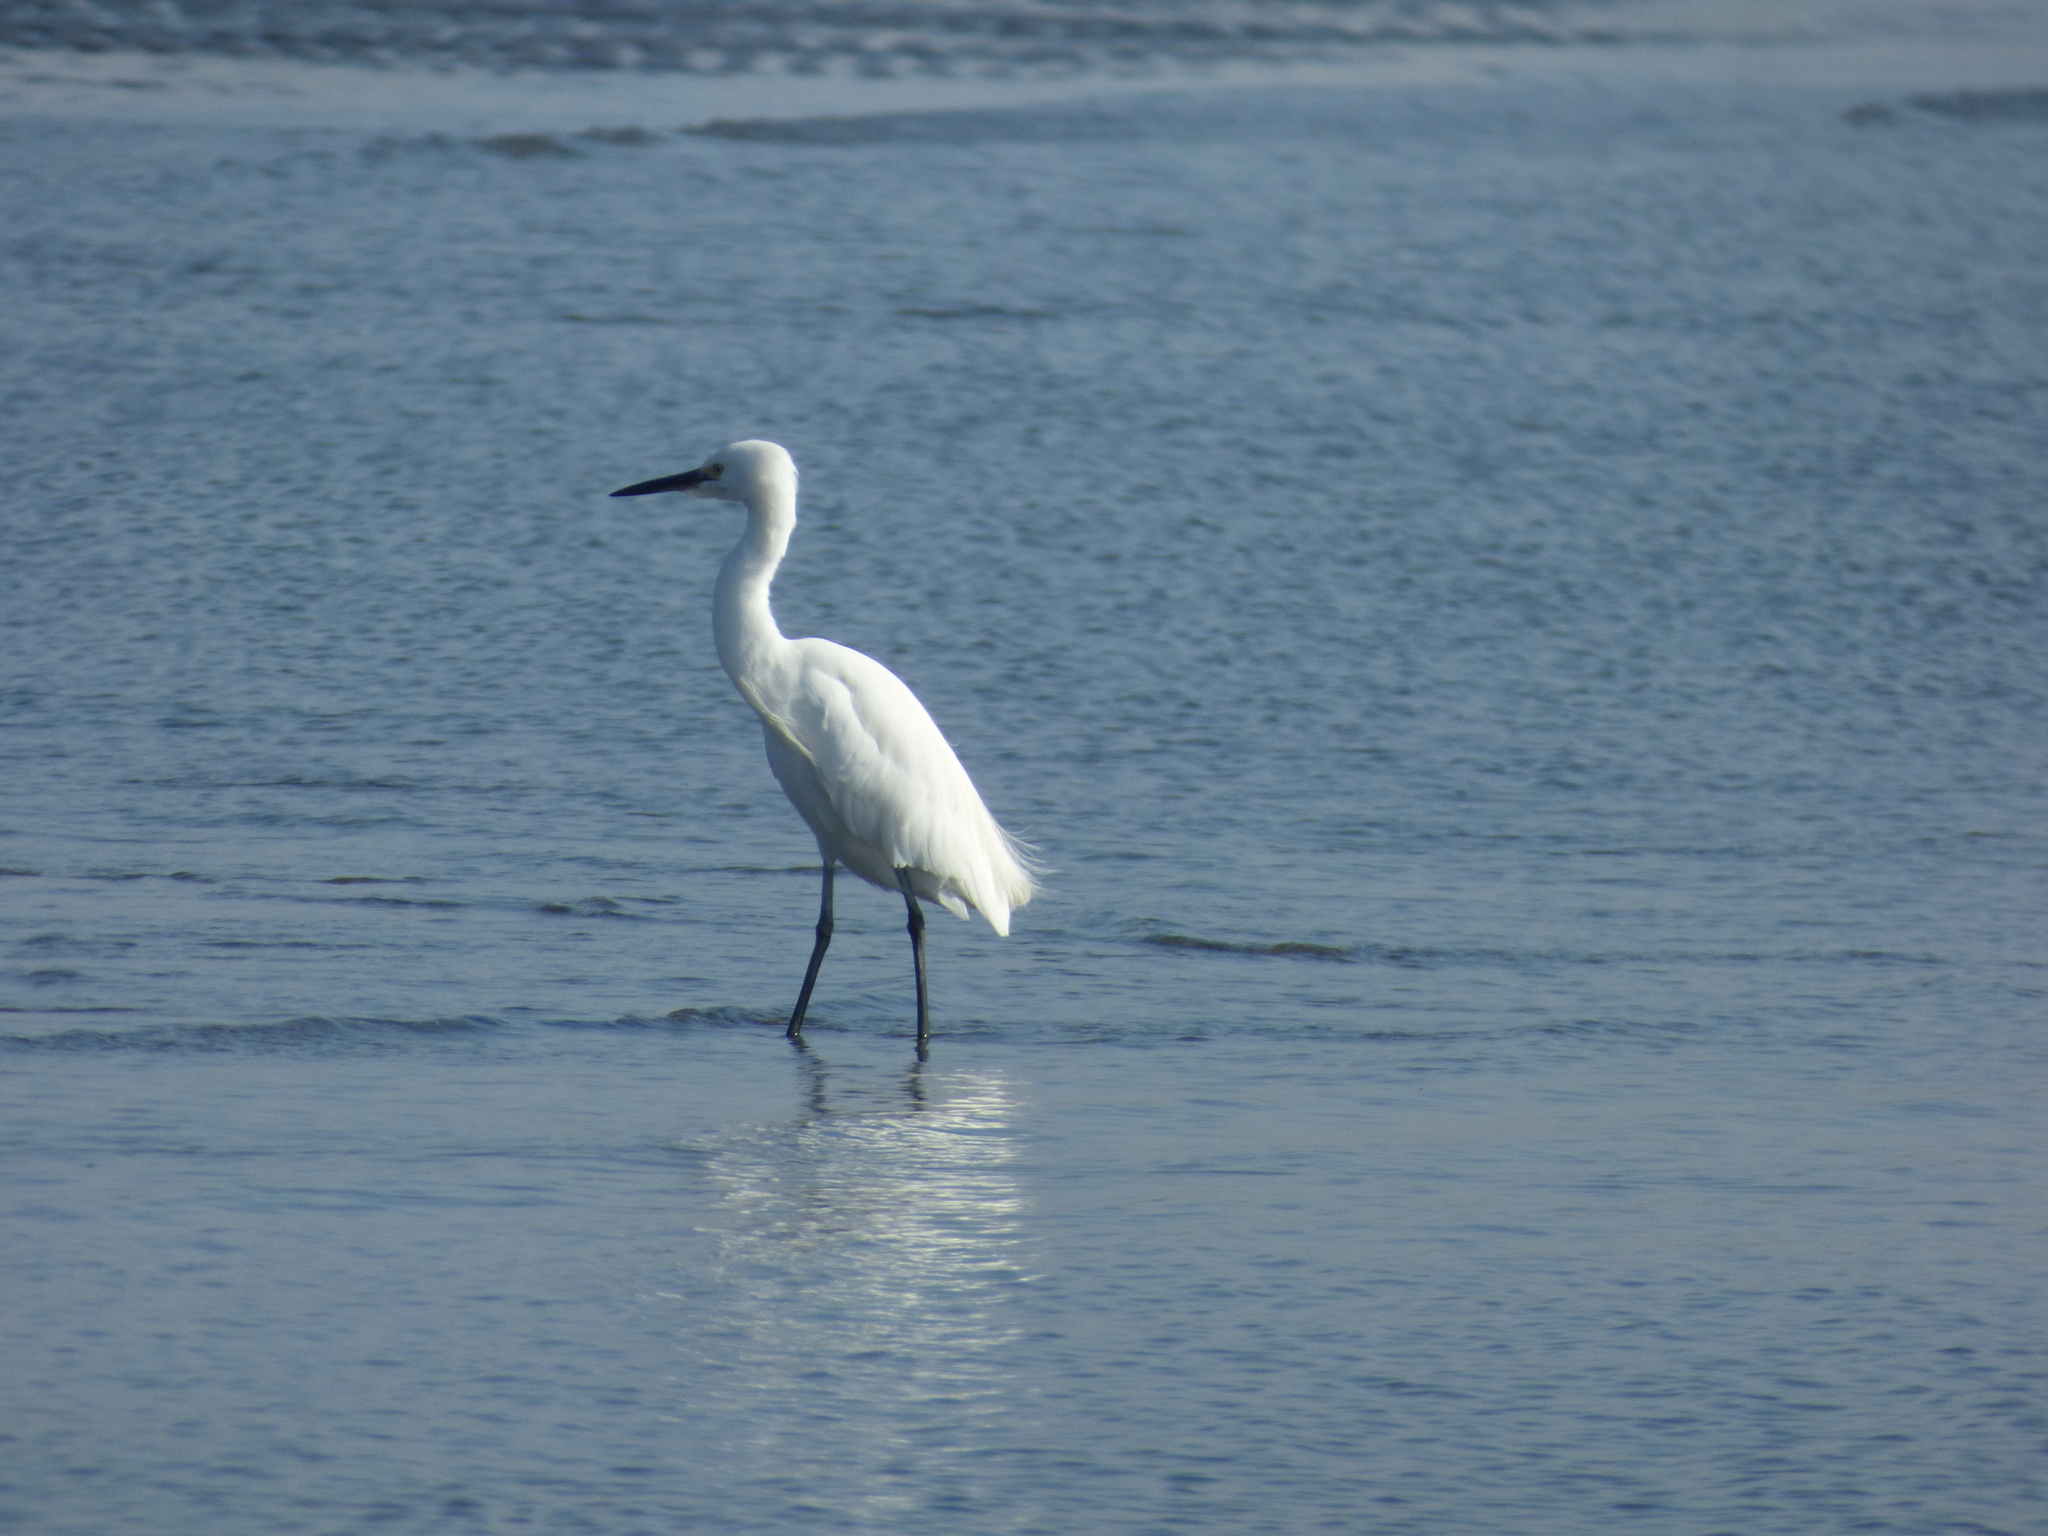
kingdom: Animalia
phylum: Chordata
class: Aves
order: Pelecaniformes
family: Ardeidae
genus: Egretta
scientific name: Egretta garzetta
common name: Little egret
